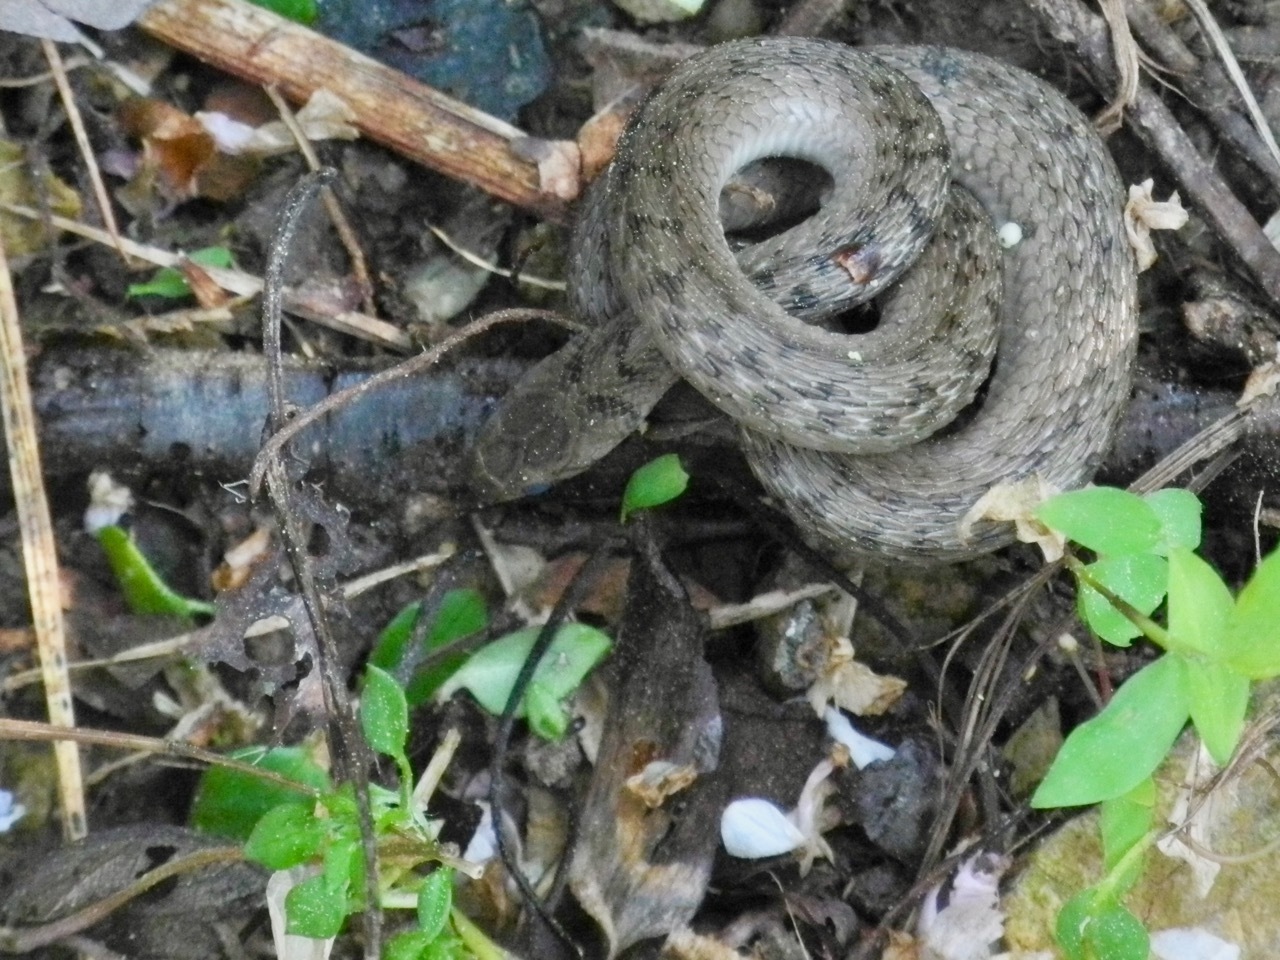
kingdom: Animalia
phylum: Chordata
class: Squamata
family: Colubridae
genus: Storeria
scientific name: Storeria dekayi
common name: (dekay’s) brown snake
